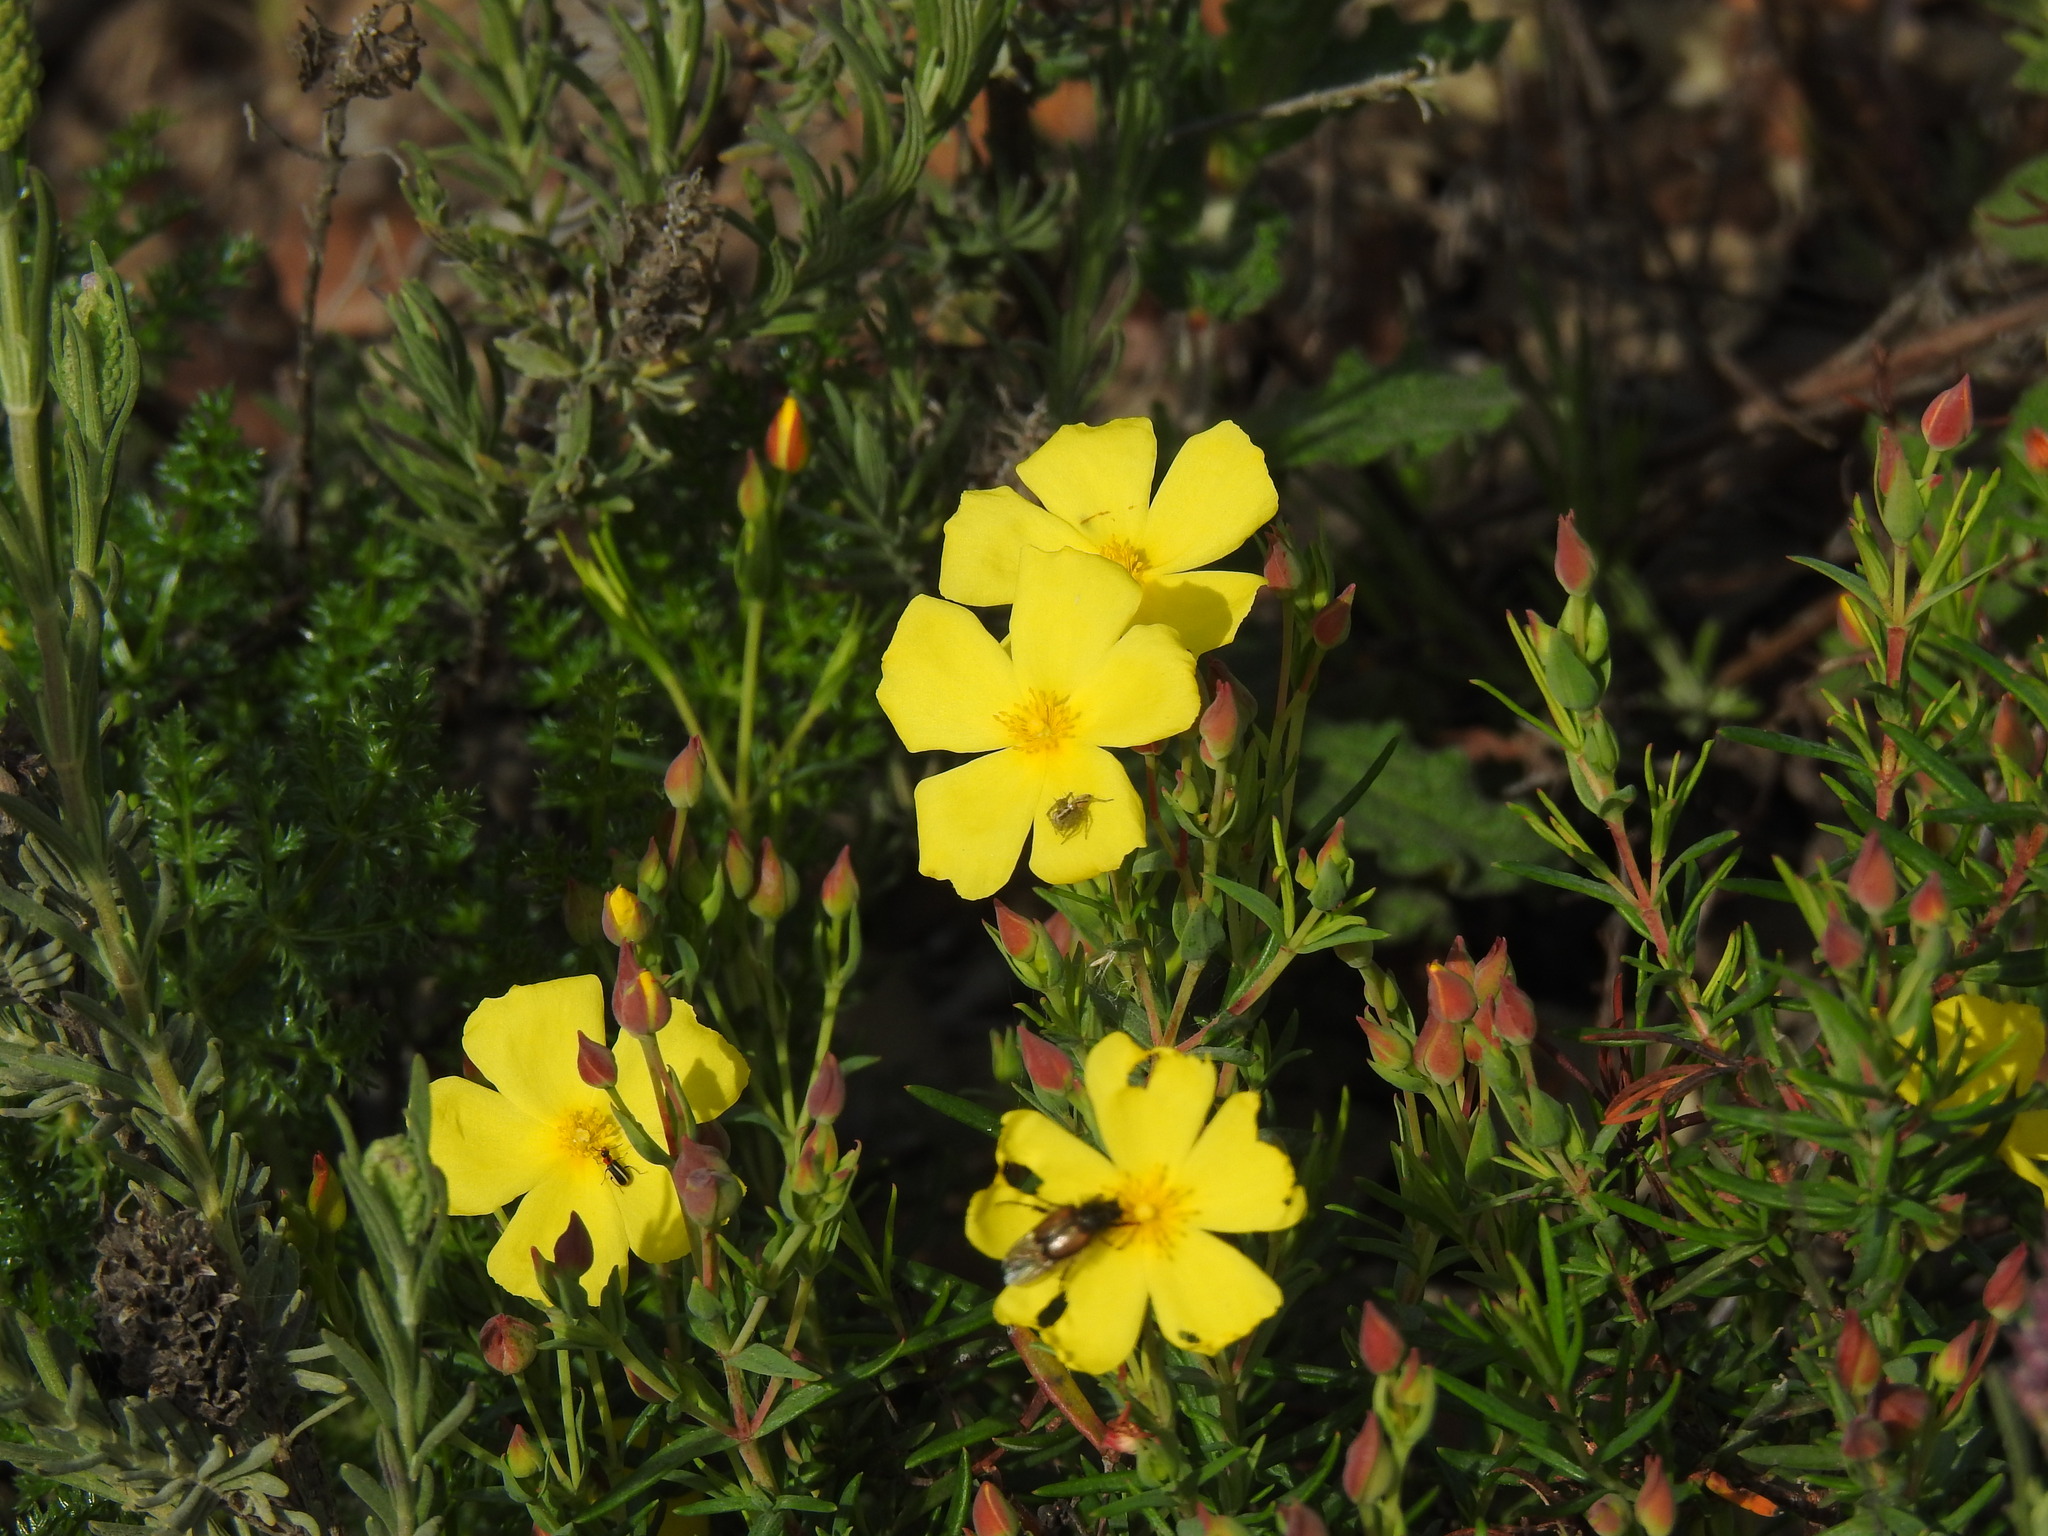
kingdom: Plantae
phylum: Tracheophyta
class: Magnoliopsida
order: Malvales
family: Cistaceae
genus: Halimium
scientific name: Halimium calycinum
